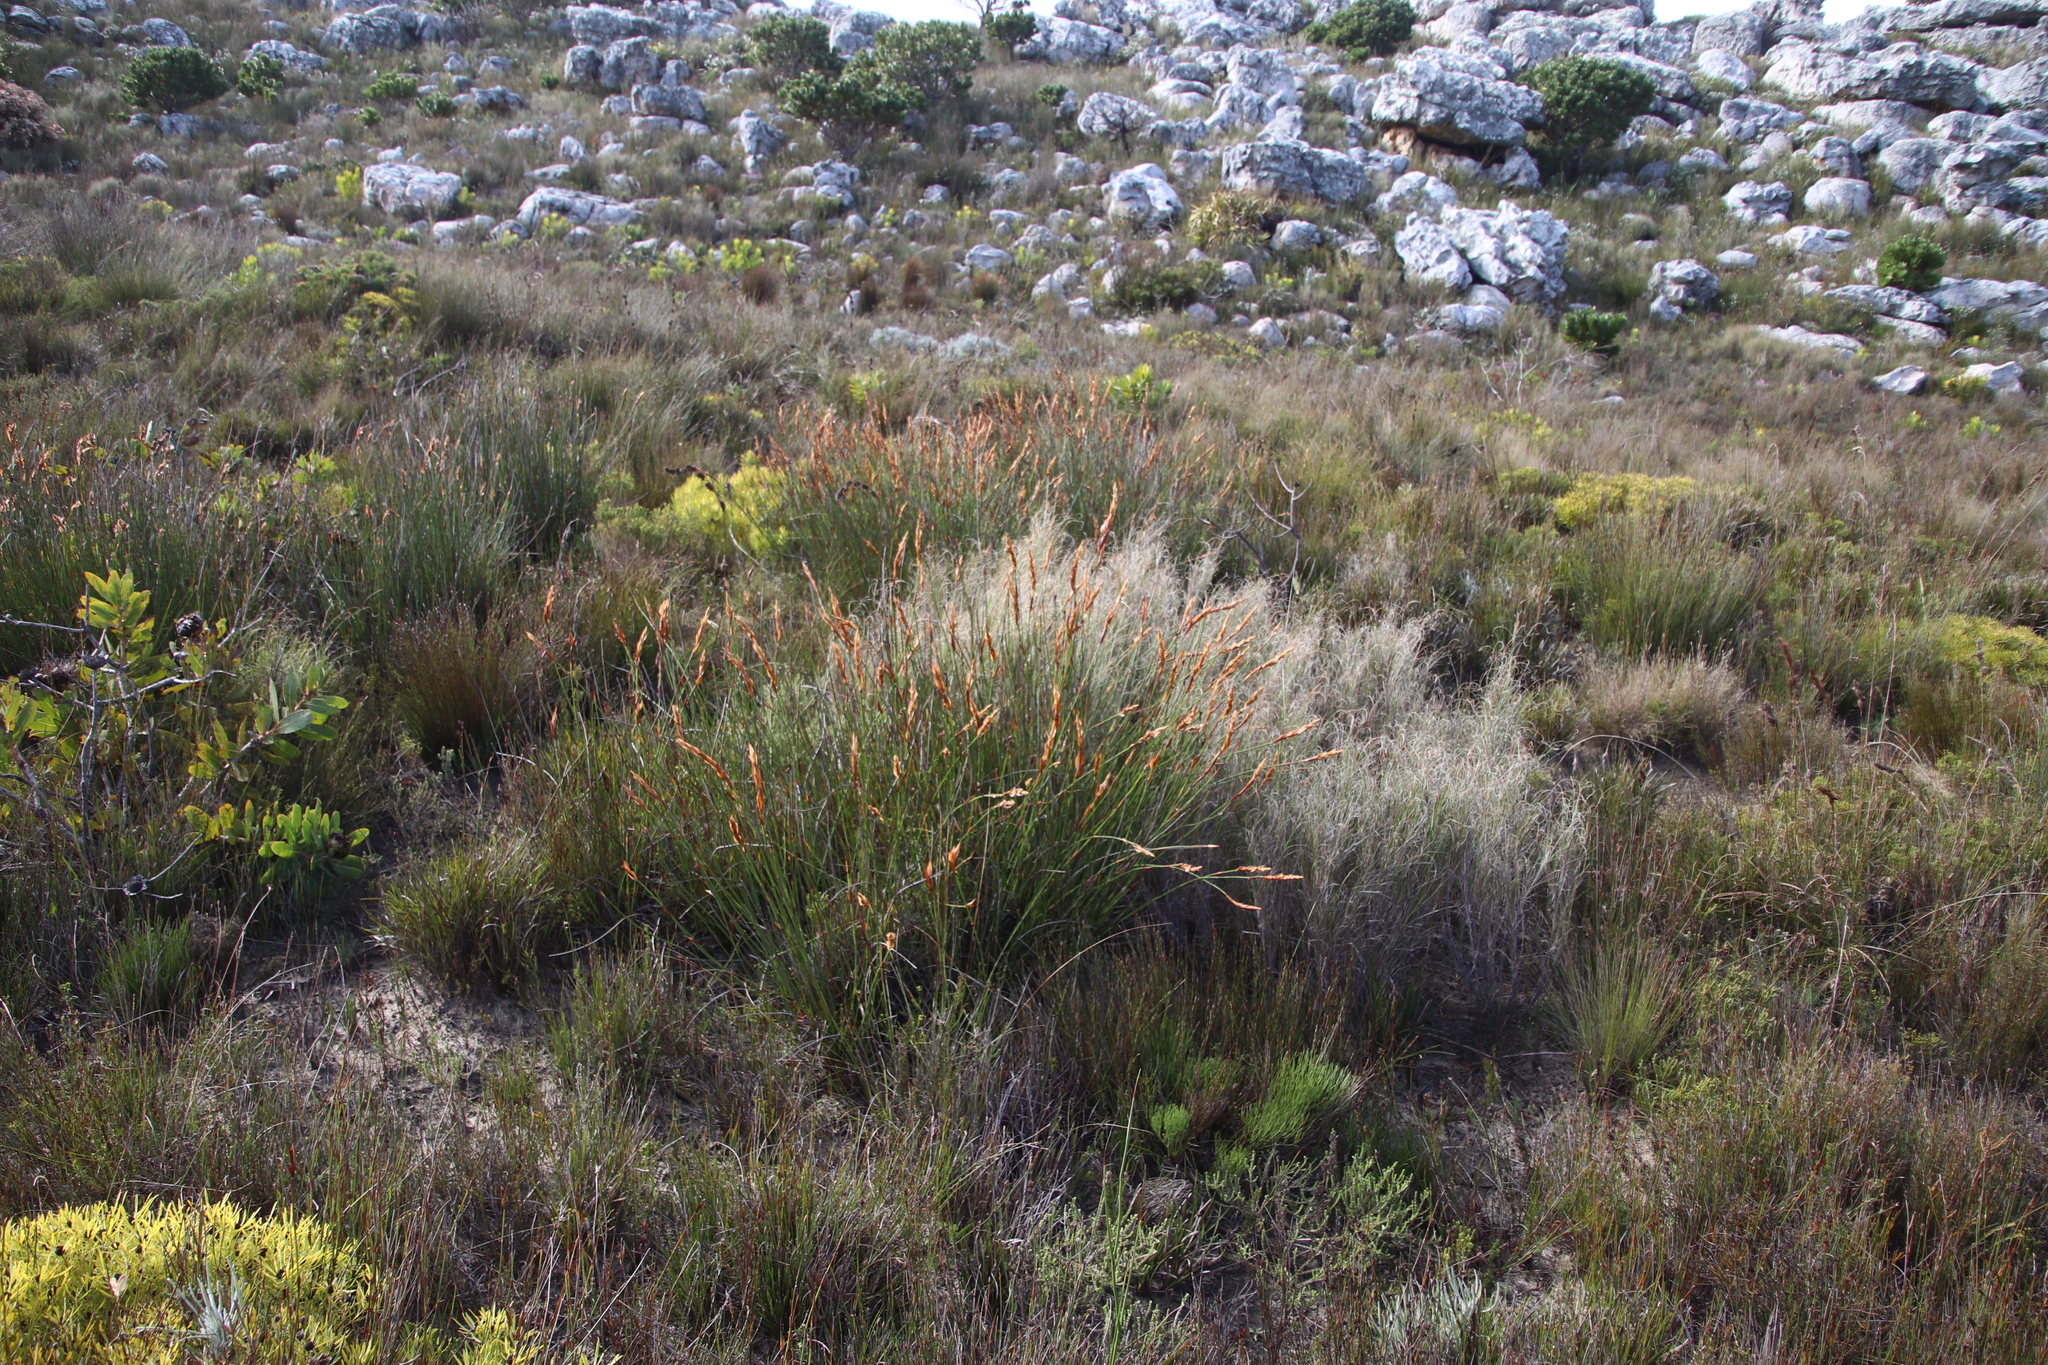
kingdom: Plantae
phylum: Tracheophyta
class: Liliopsida
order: Poales
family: Restionaceae
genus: Elegia
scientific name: Elegia racemosa
